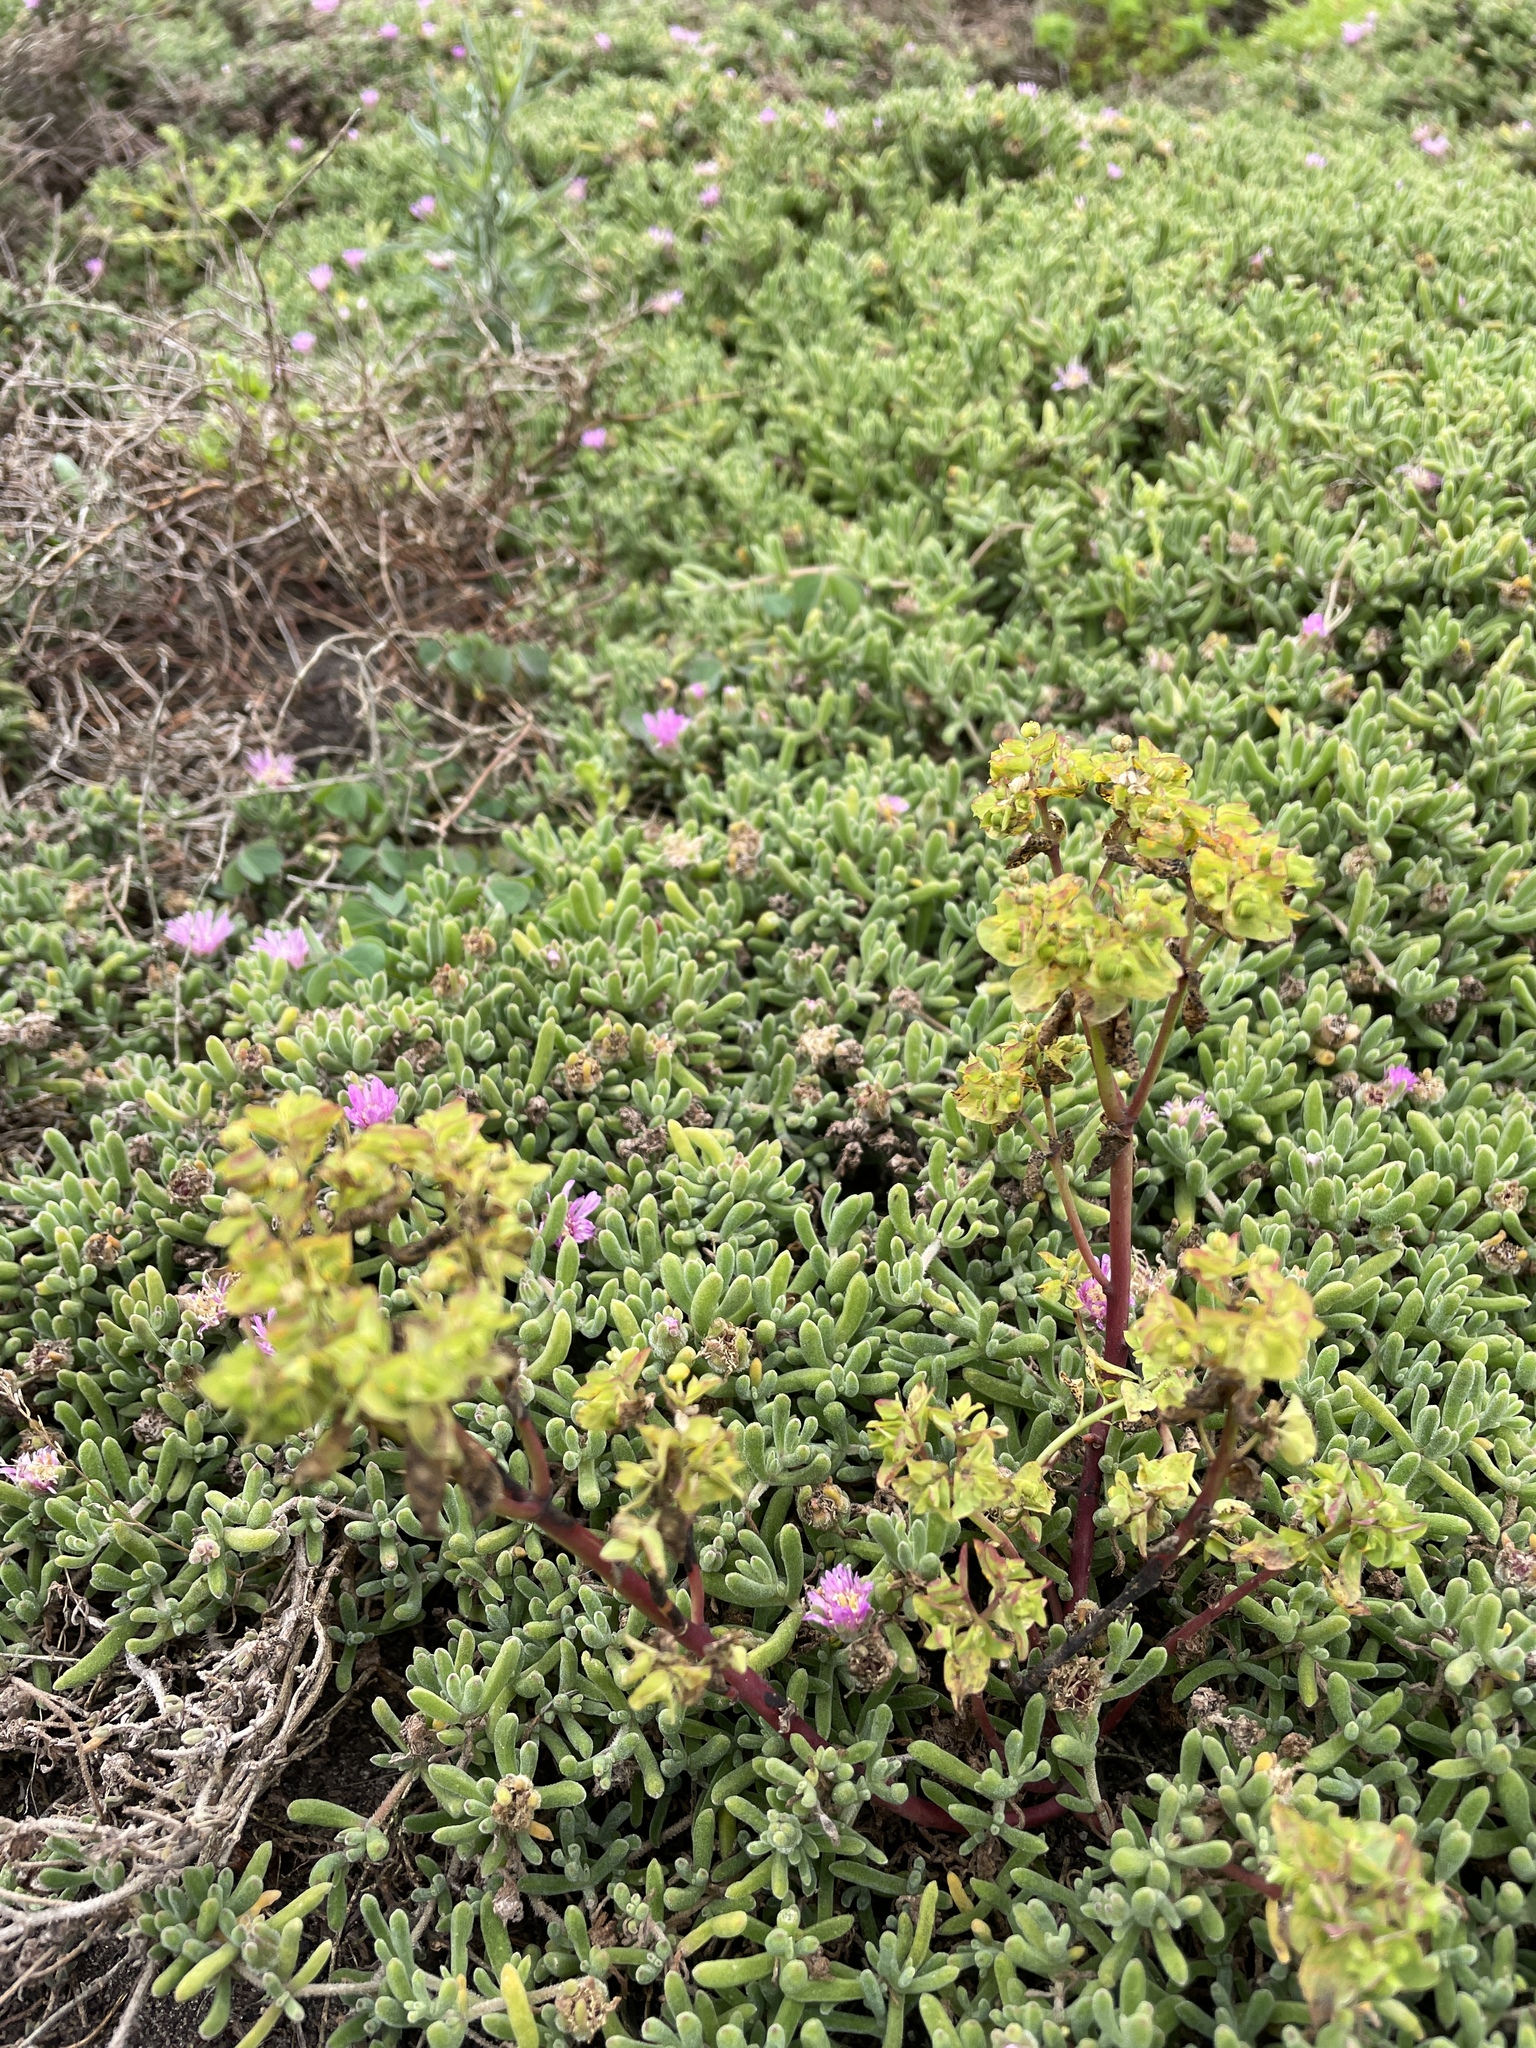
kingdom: Plantae
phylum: Tracheophyta
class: Magnoliopsida
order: Malpighiales
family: Euphorbiaceae
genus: Euphorbia
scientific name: Euphorbia peplus
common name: Petty spurge
